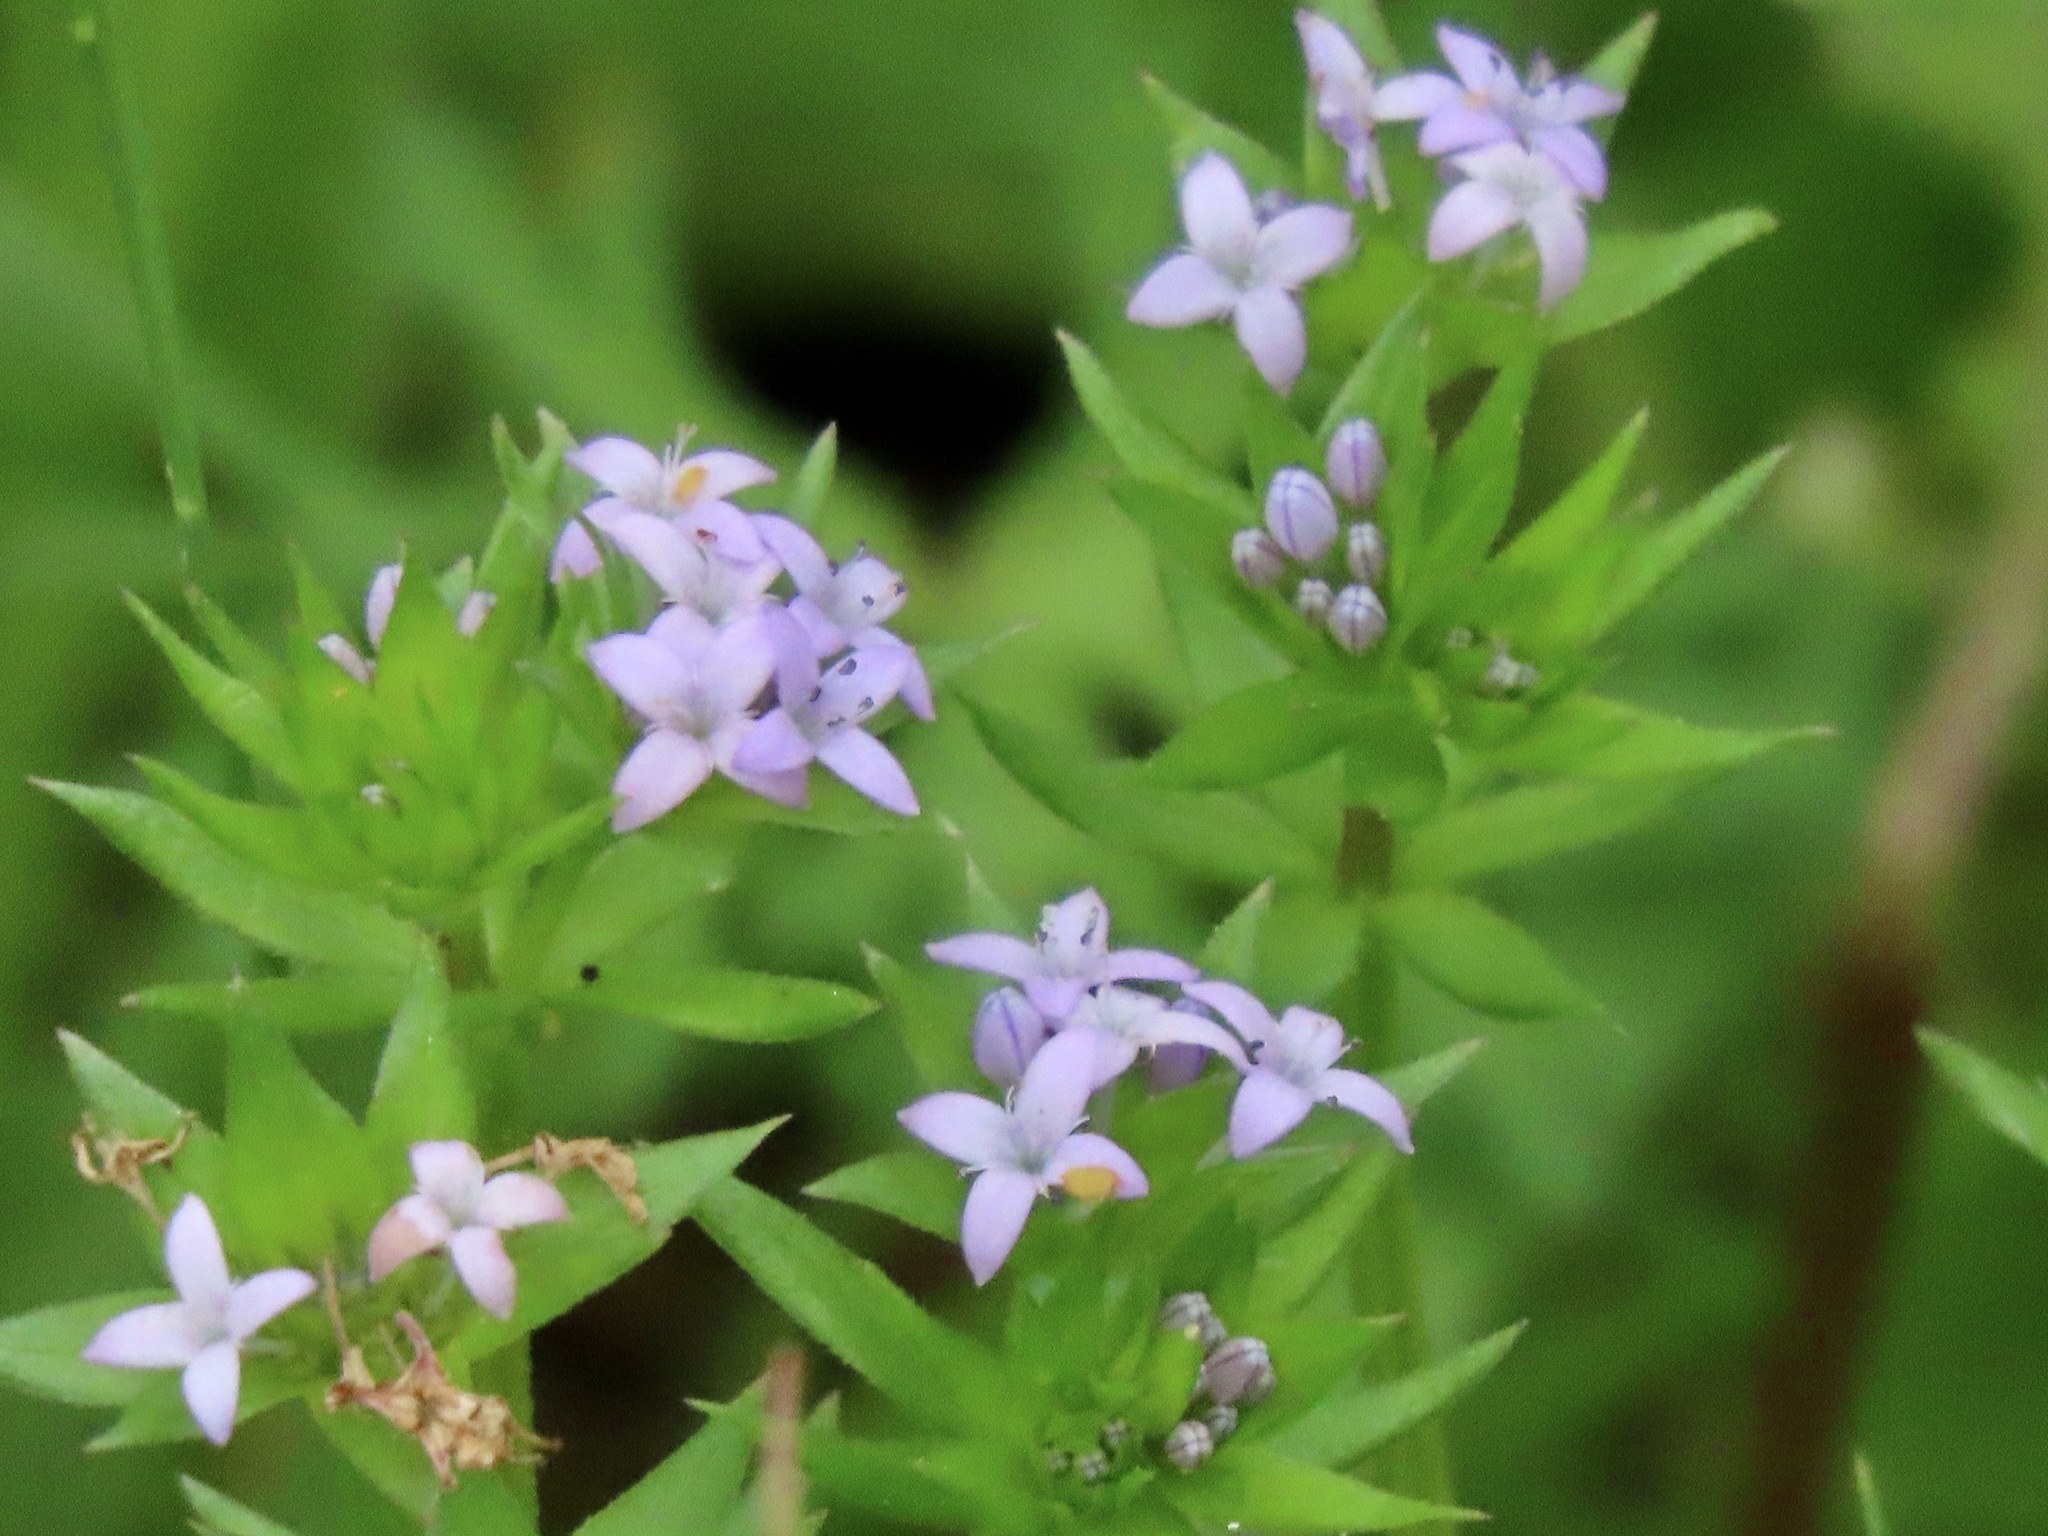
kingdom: Plantae
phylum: Tracheophyta
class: Magnoliopsida
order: Gentianales
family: Rubiaceae
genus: Sherardia
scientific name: Sherardia arvensis
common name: Field madder
